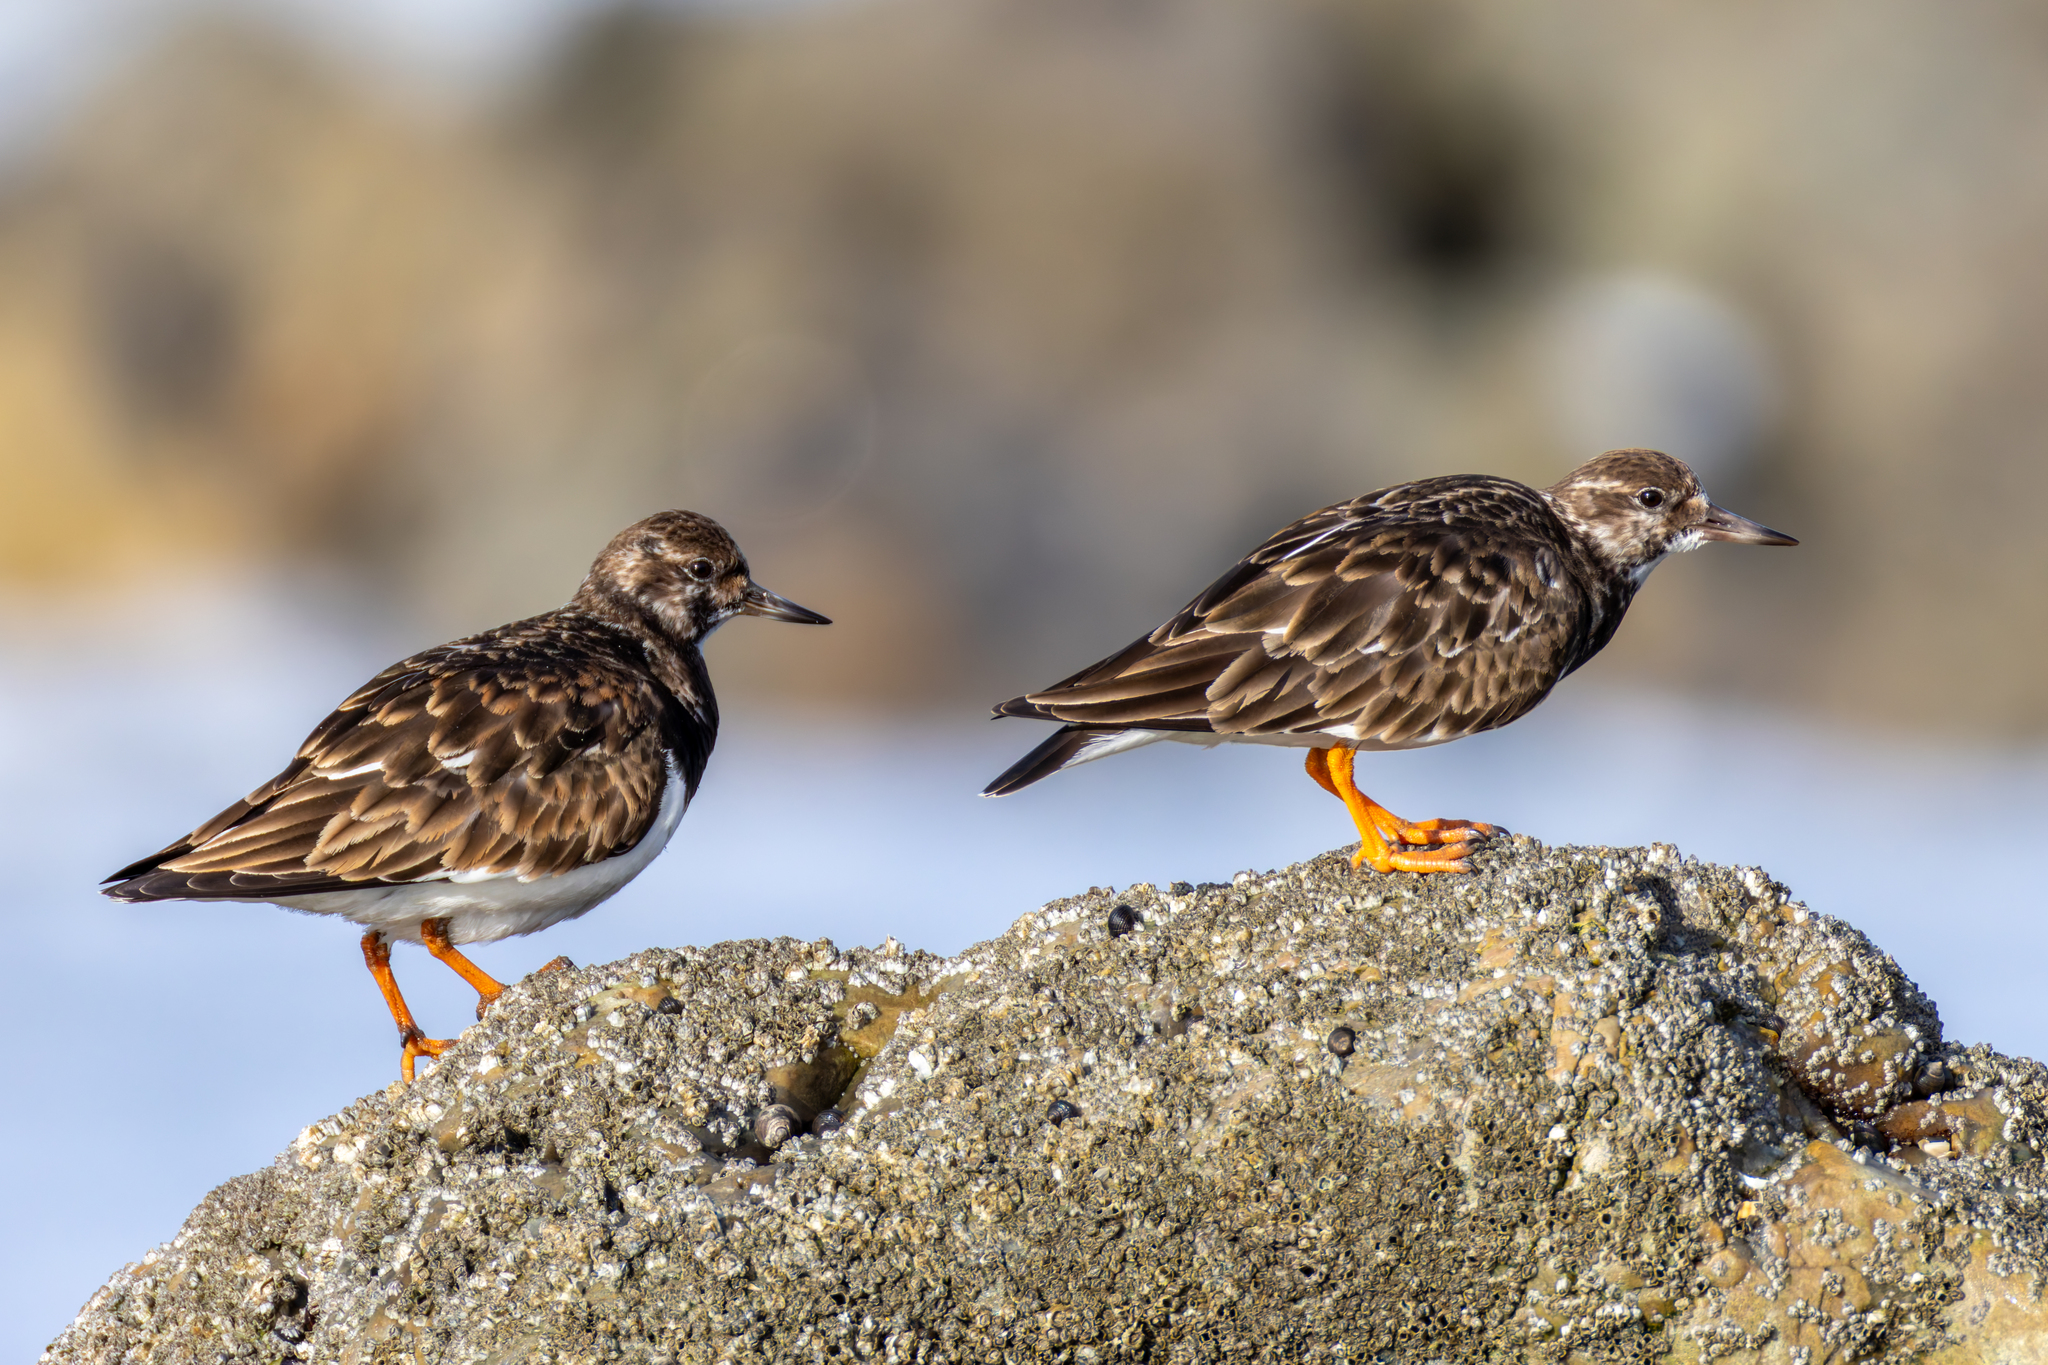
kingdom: Animalia
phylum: Chordata
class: Aves
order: Charadriiformes
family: Scolopacidae
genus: Arenaria
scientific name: Arenaria interpres
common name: Ruddy turnstone
